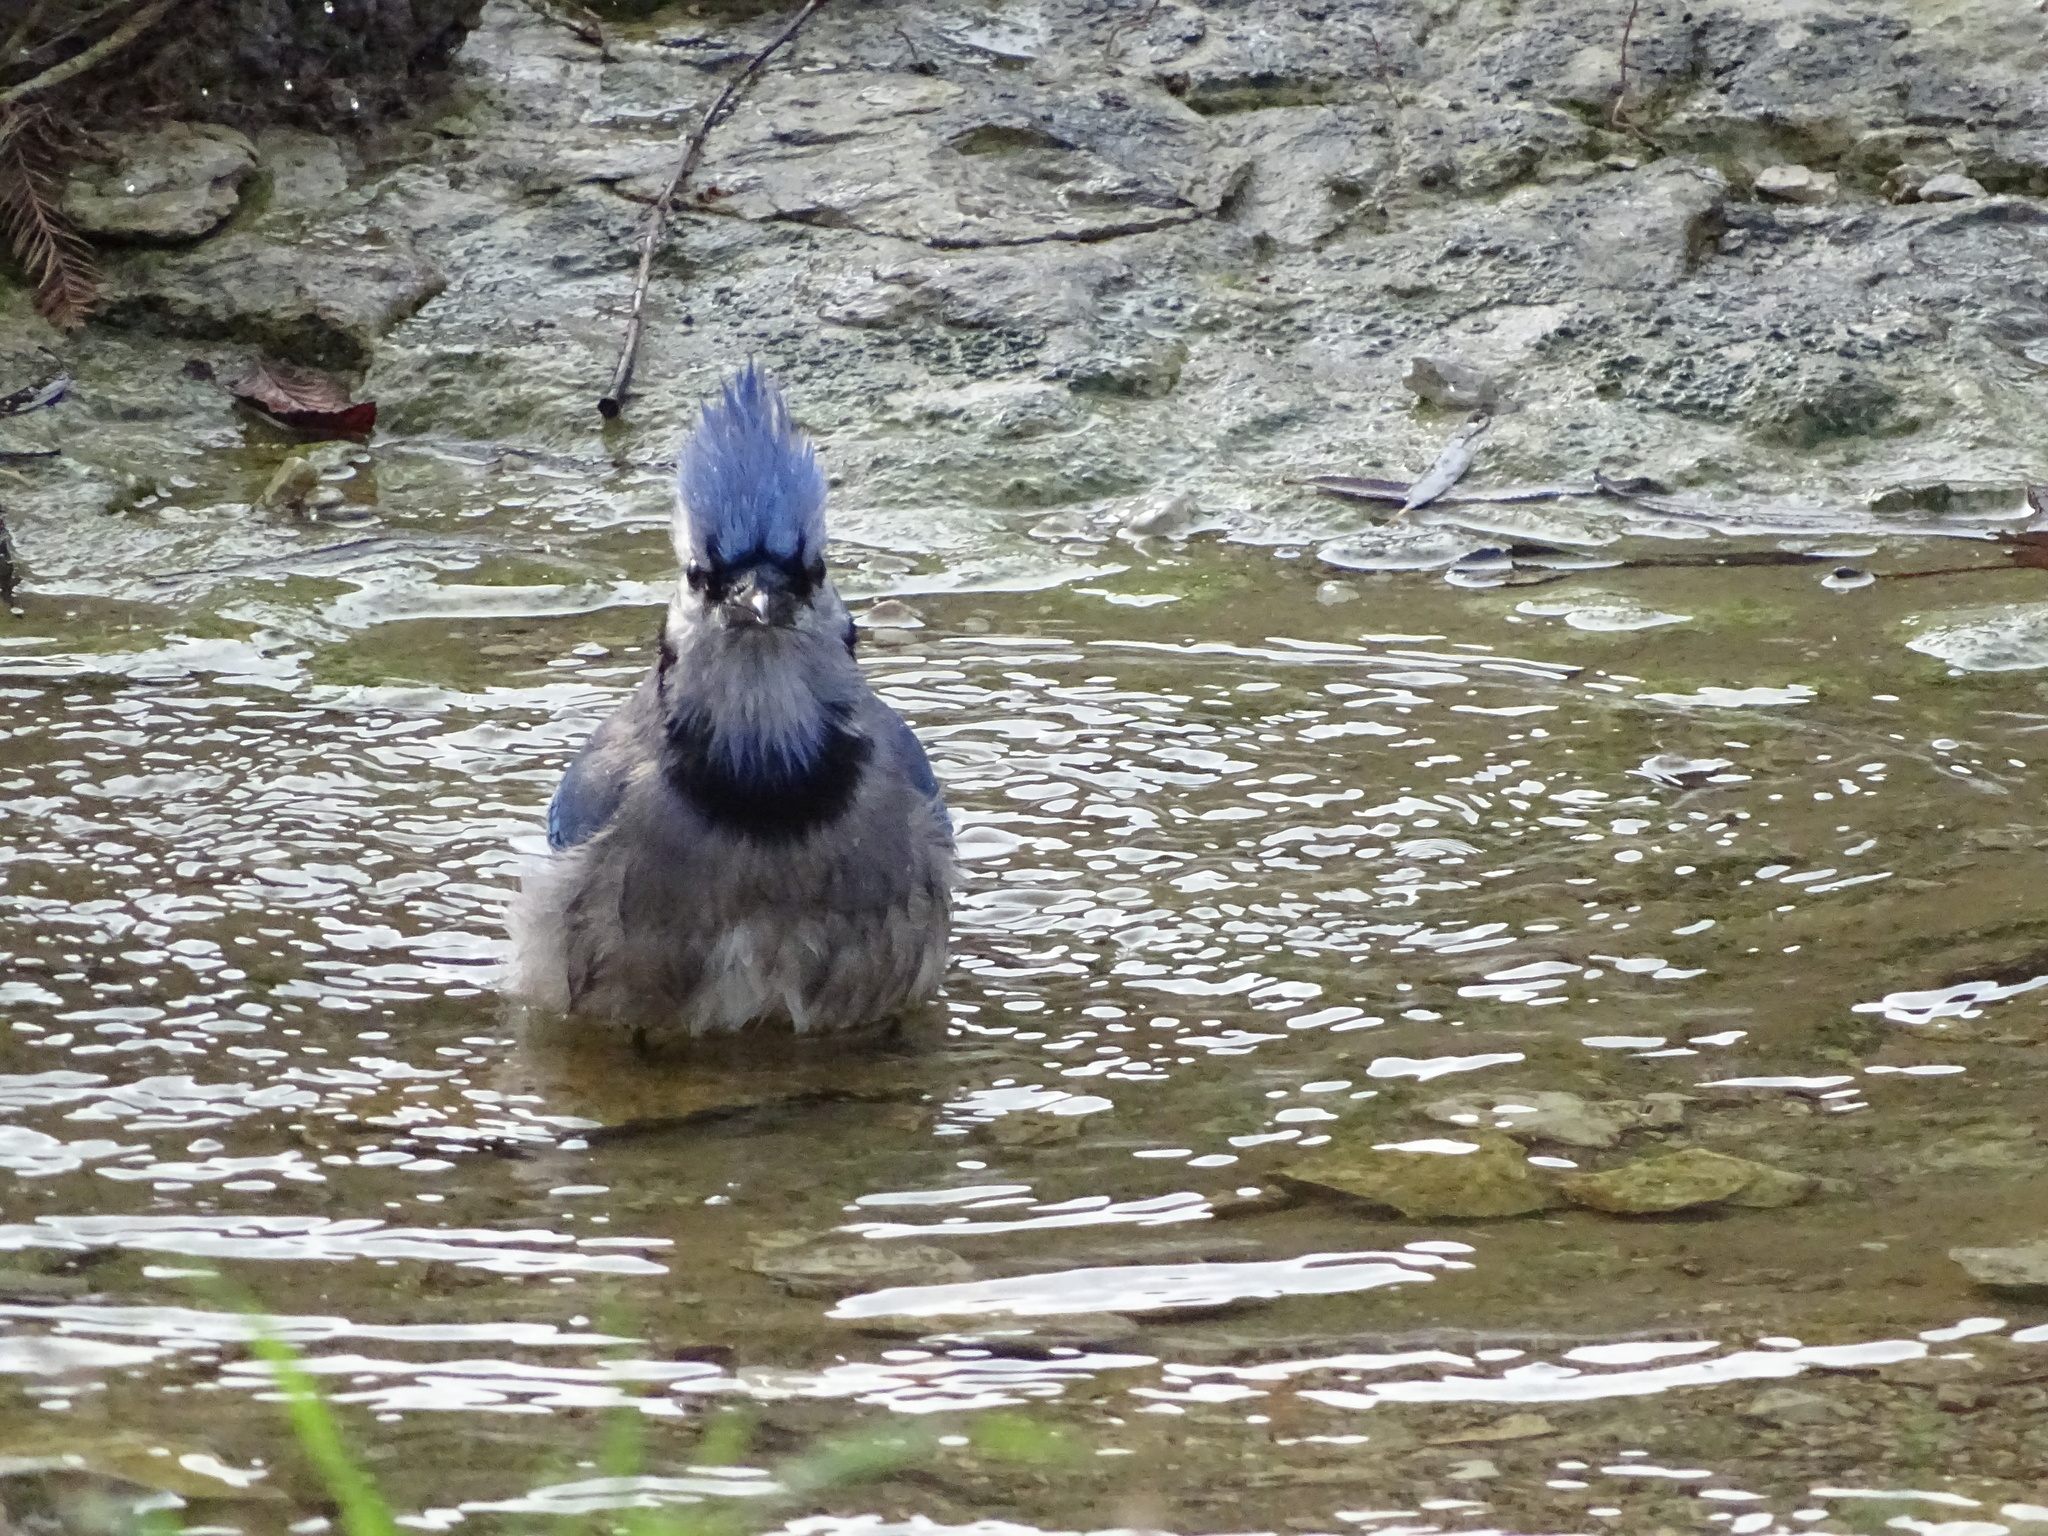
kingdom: Animalia
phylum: Chordata
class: Aves
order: Passeriformes
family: Corvidae
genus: Cyanocitta
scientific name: Cyanocitta cristata
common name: Blue jay
